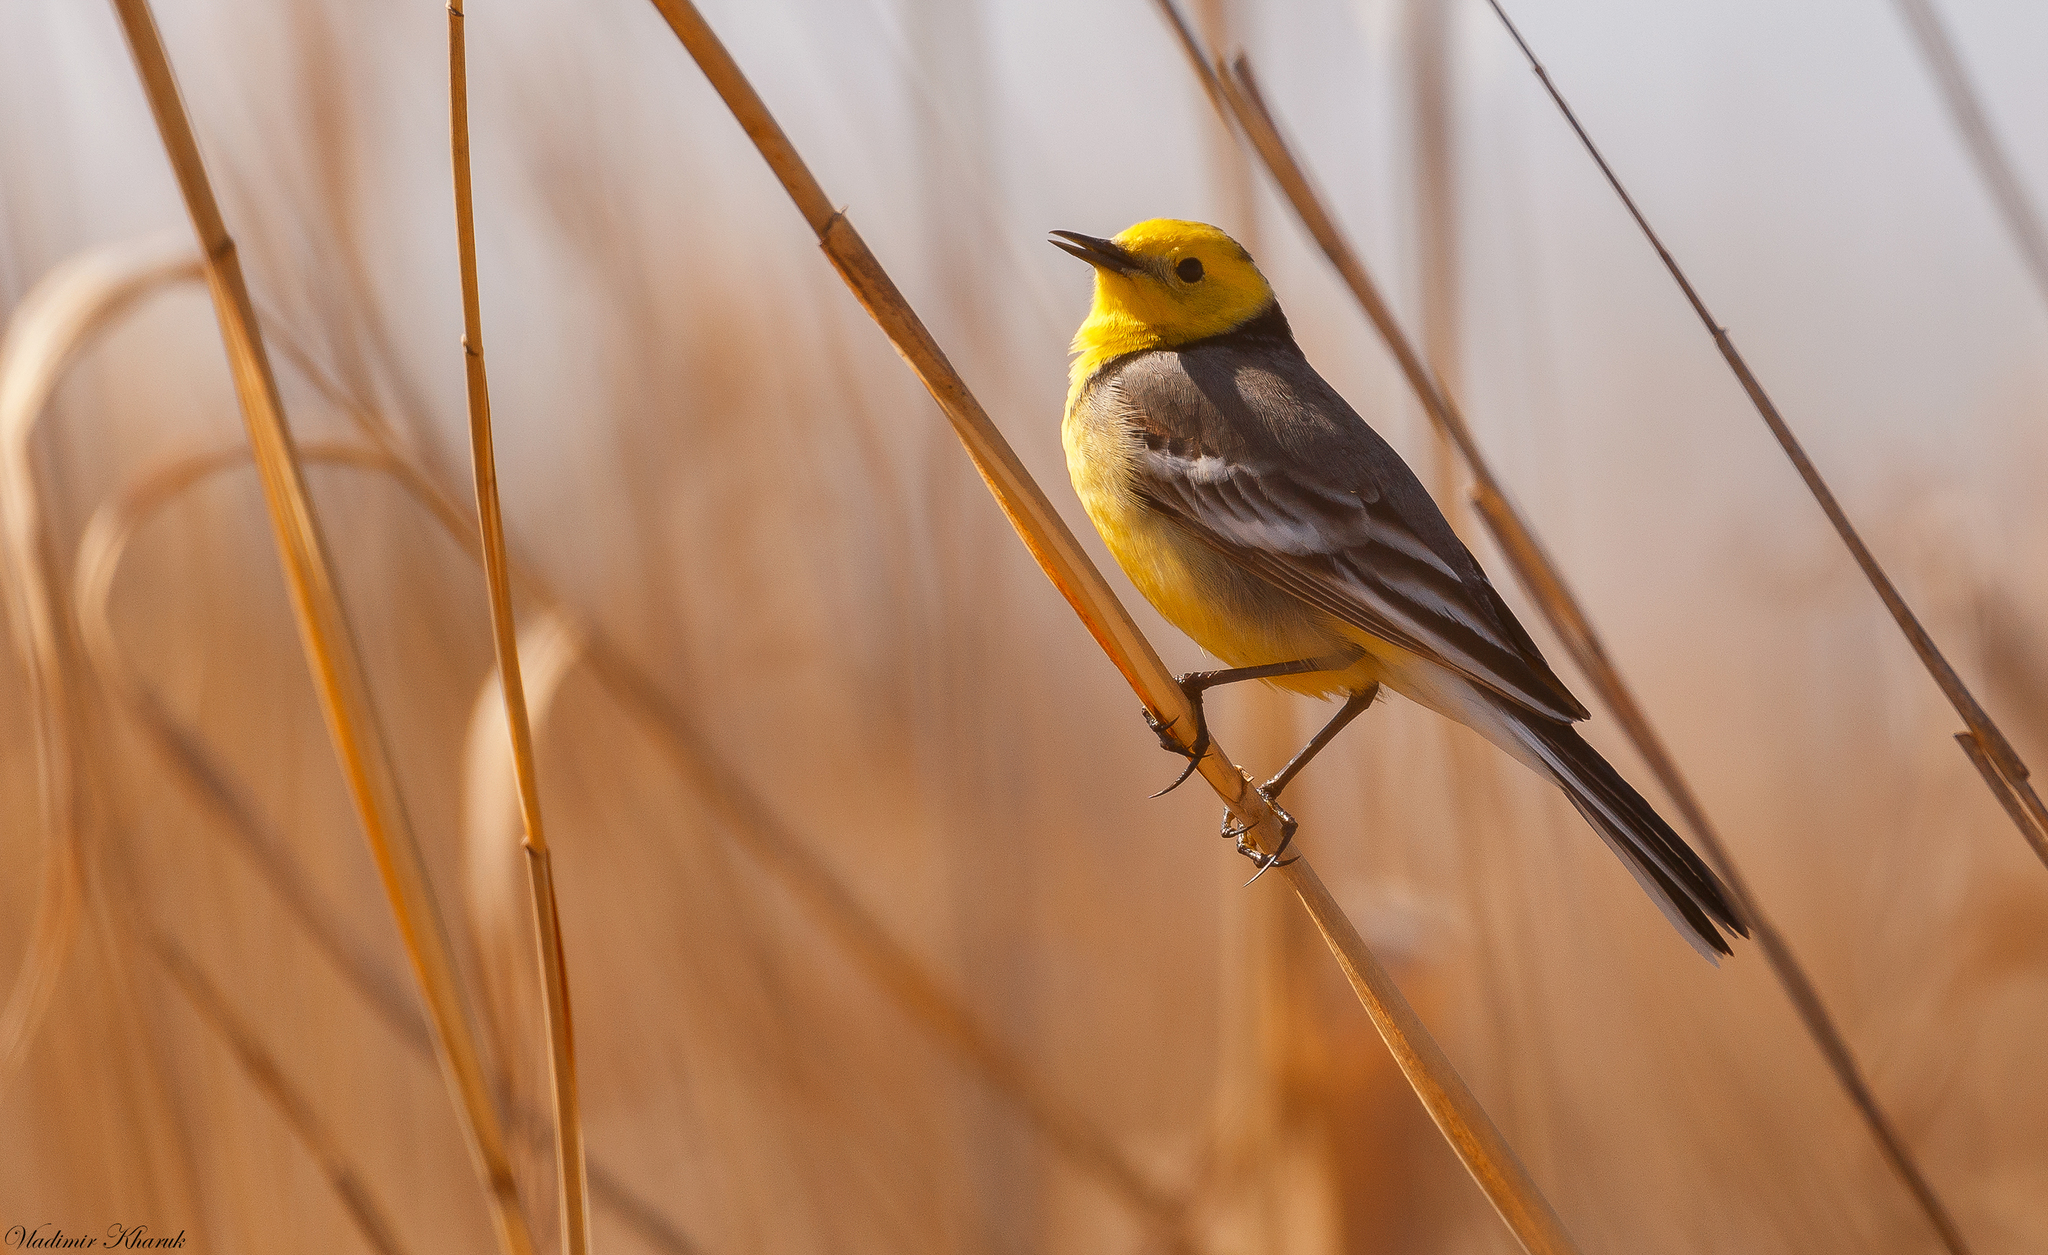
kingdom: Animalia
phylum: Chordata
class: Aves
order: Passeriformes
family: Motacillidae
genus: Motacilla
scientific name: Motacilla citreola
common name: Citrine wagtail
